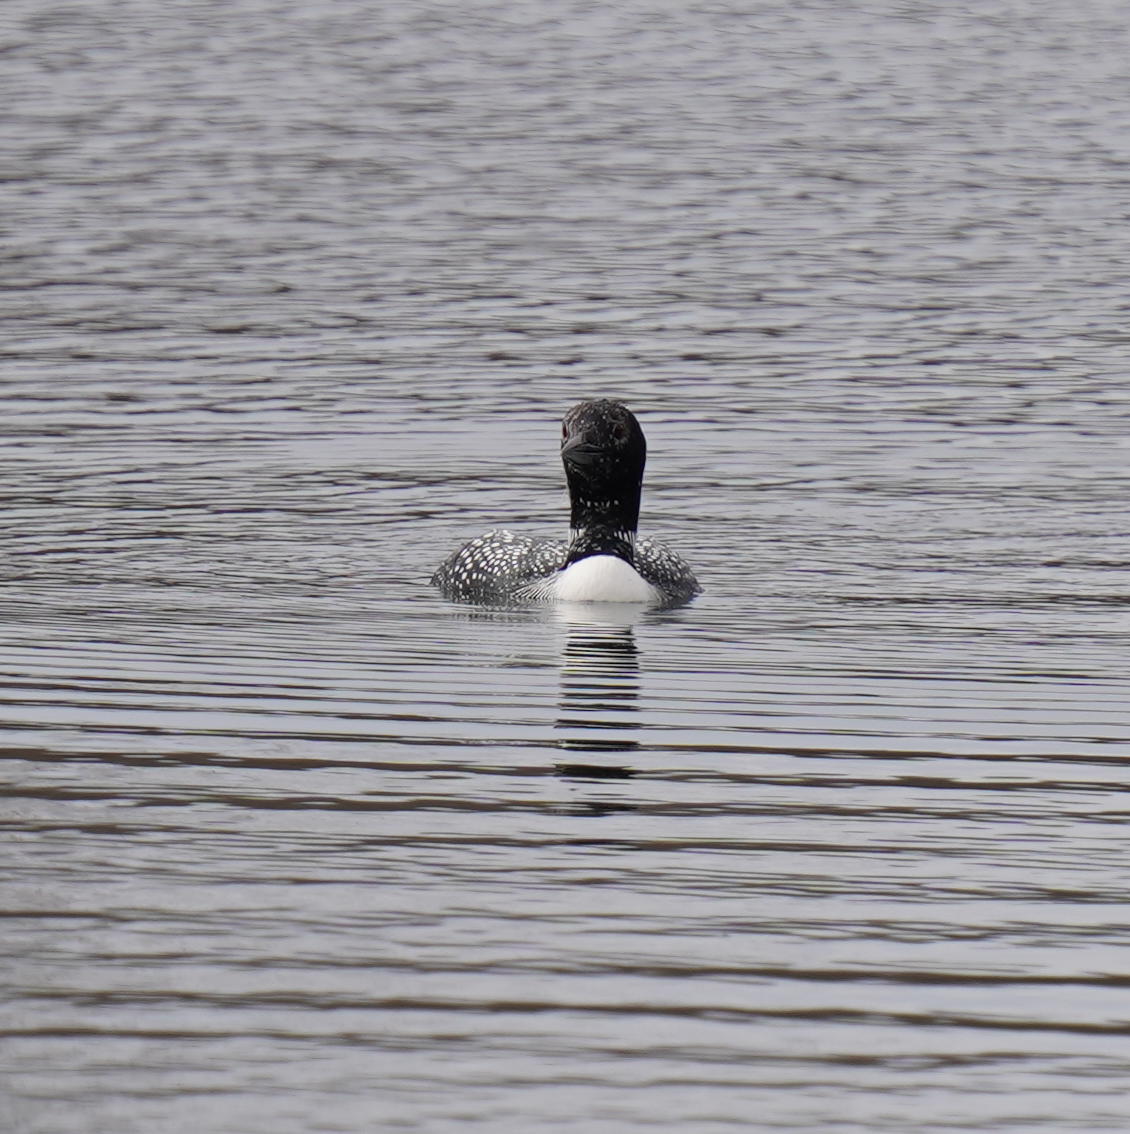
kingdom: Animalia
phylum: Chordata
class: Aves
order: Gaviiformes
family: Gaviidae
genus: Gavia
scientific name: Gavia immer
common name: Common loon
